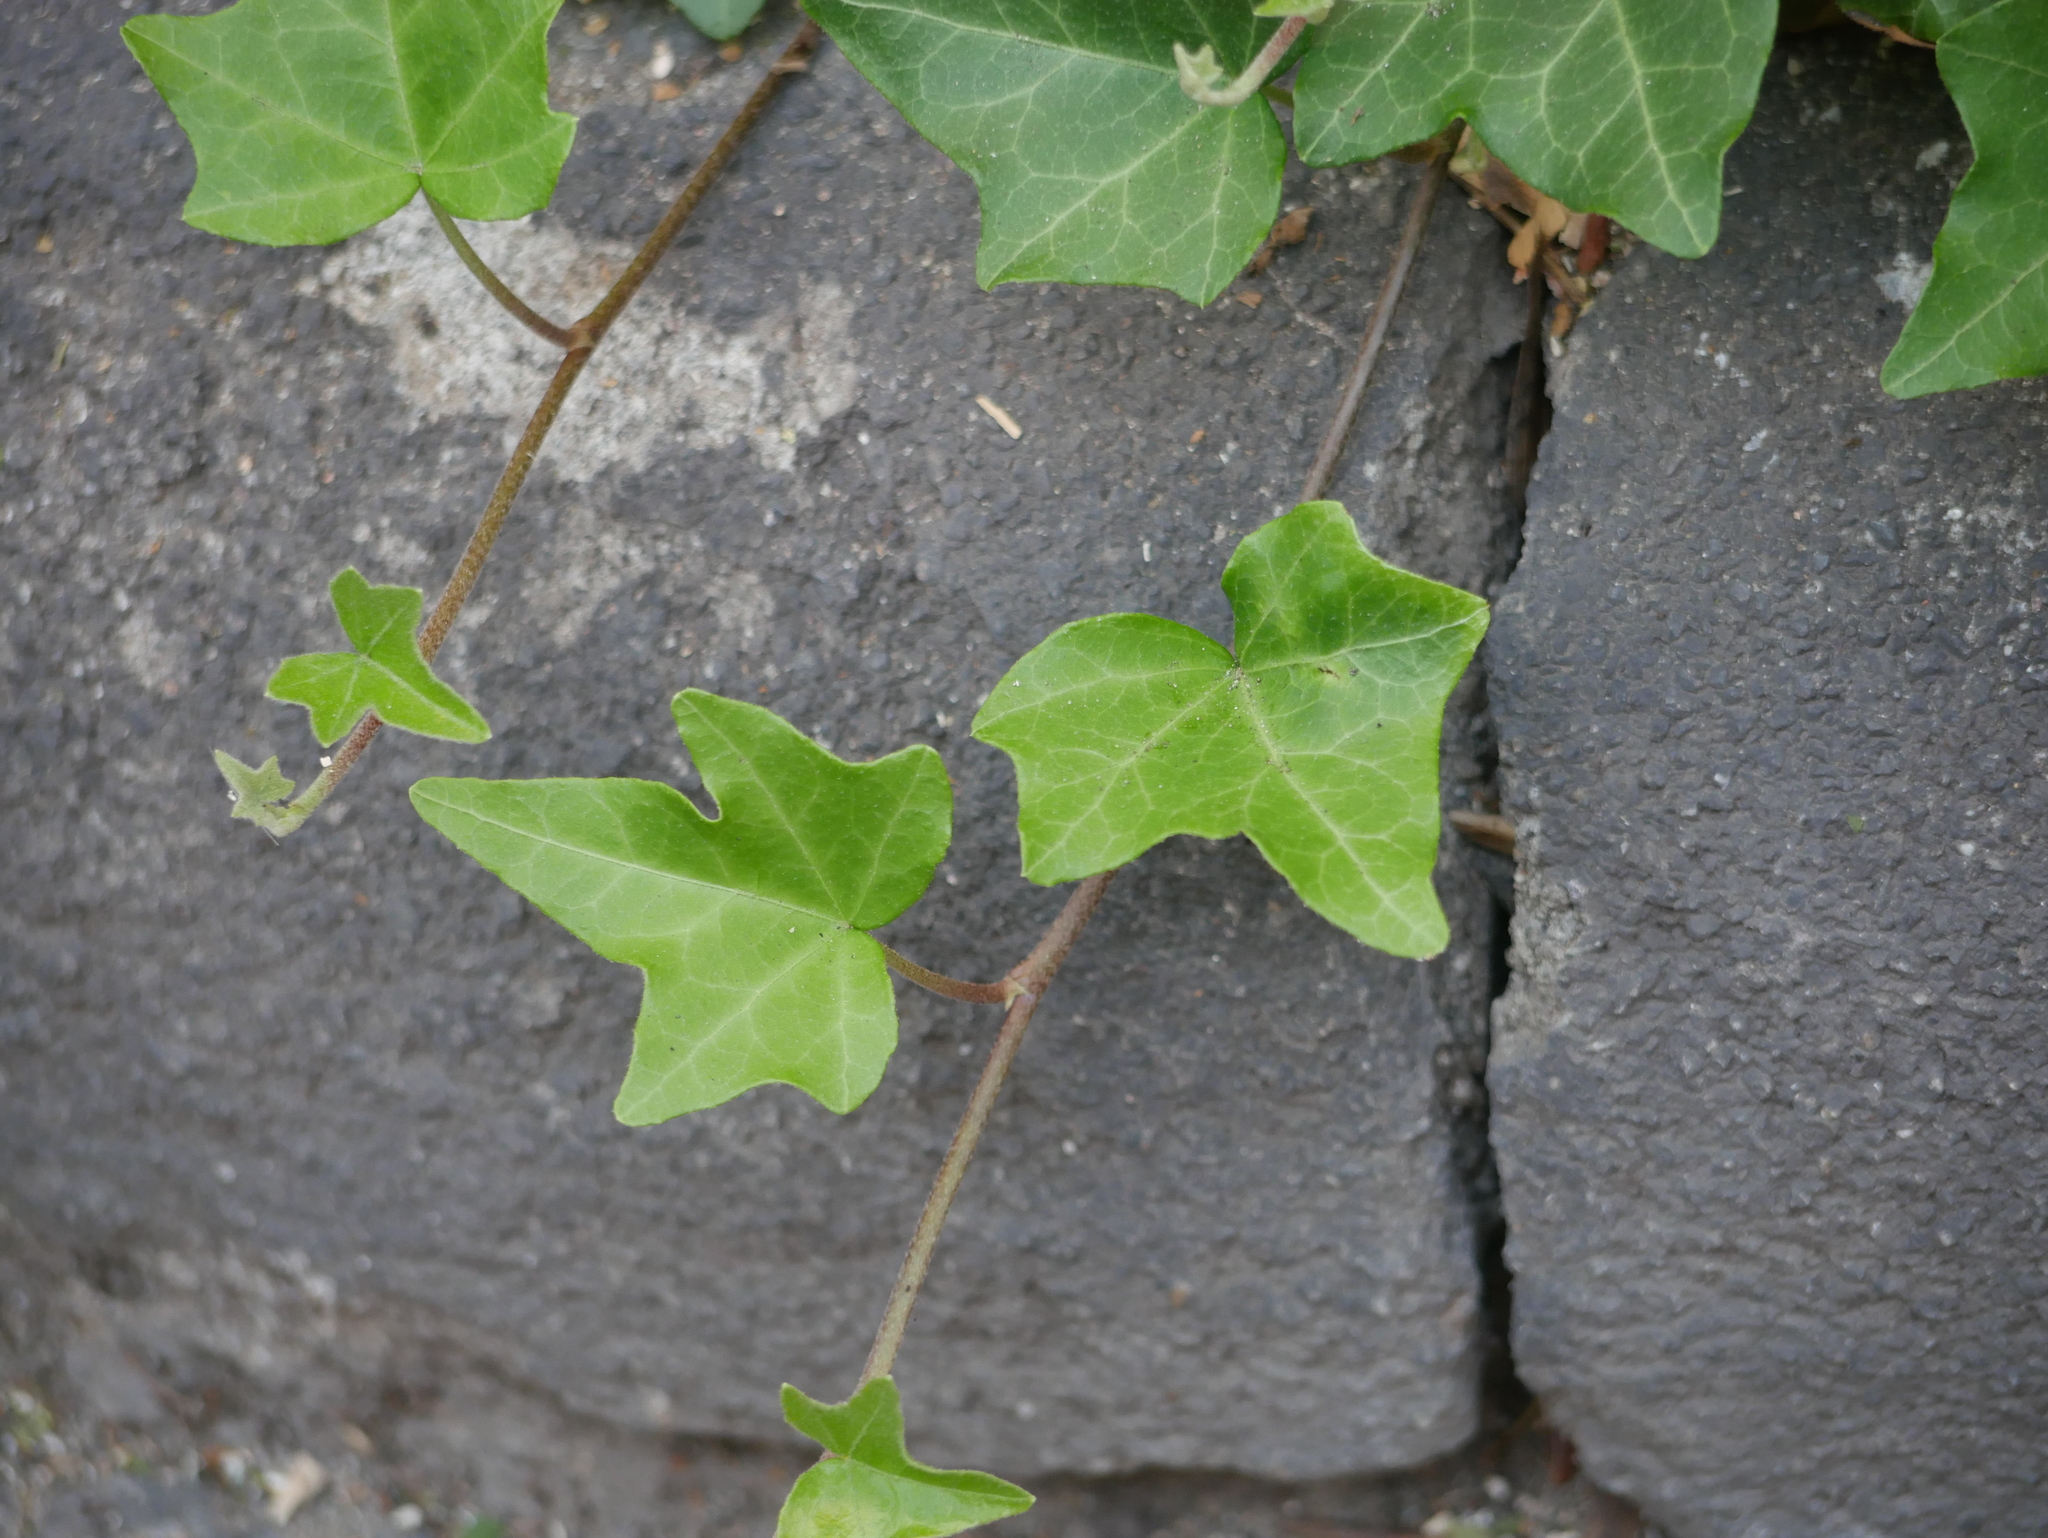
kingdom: Plantae
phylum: Tracheophyta
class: Magnoliopsida
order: Apiales
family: Araliaceae
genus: Hedera
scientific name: Hedera helix
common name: Ivy
